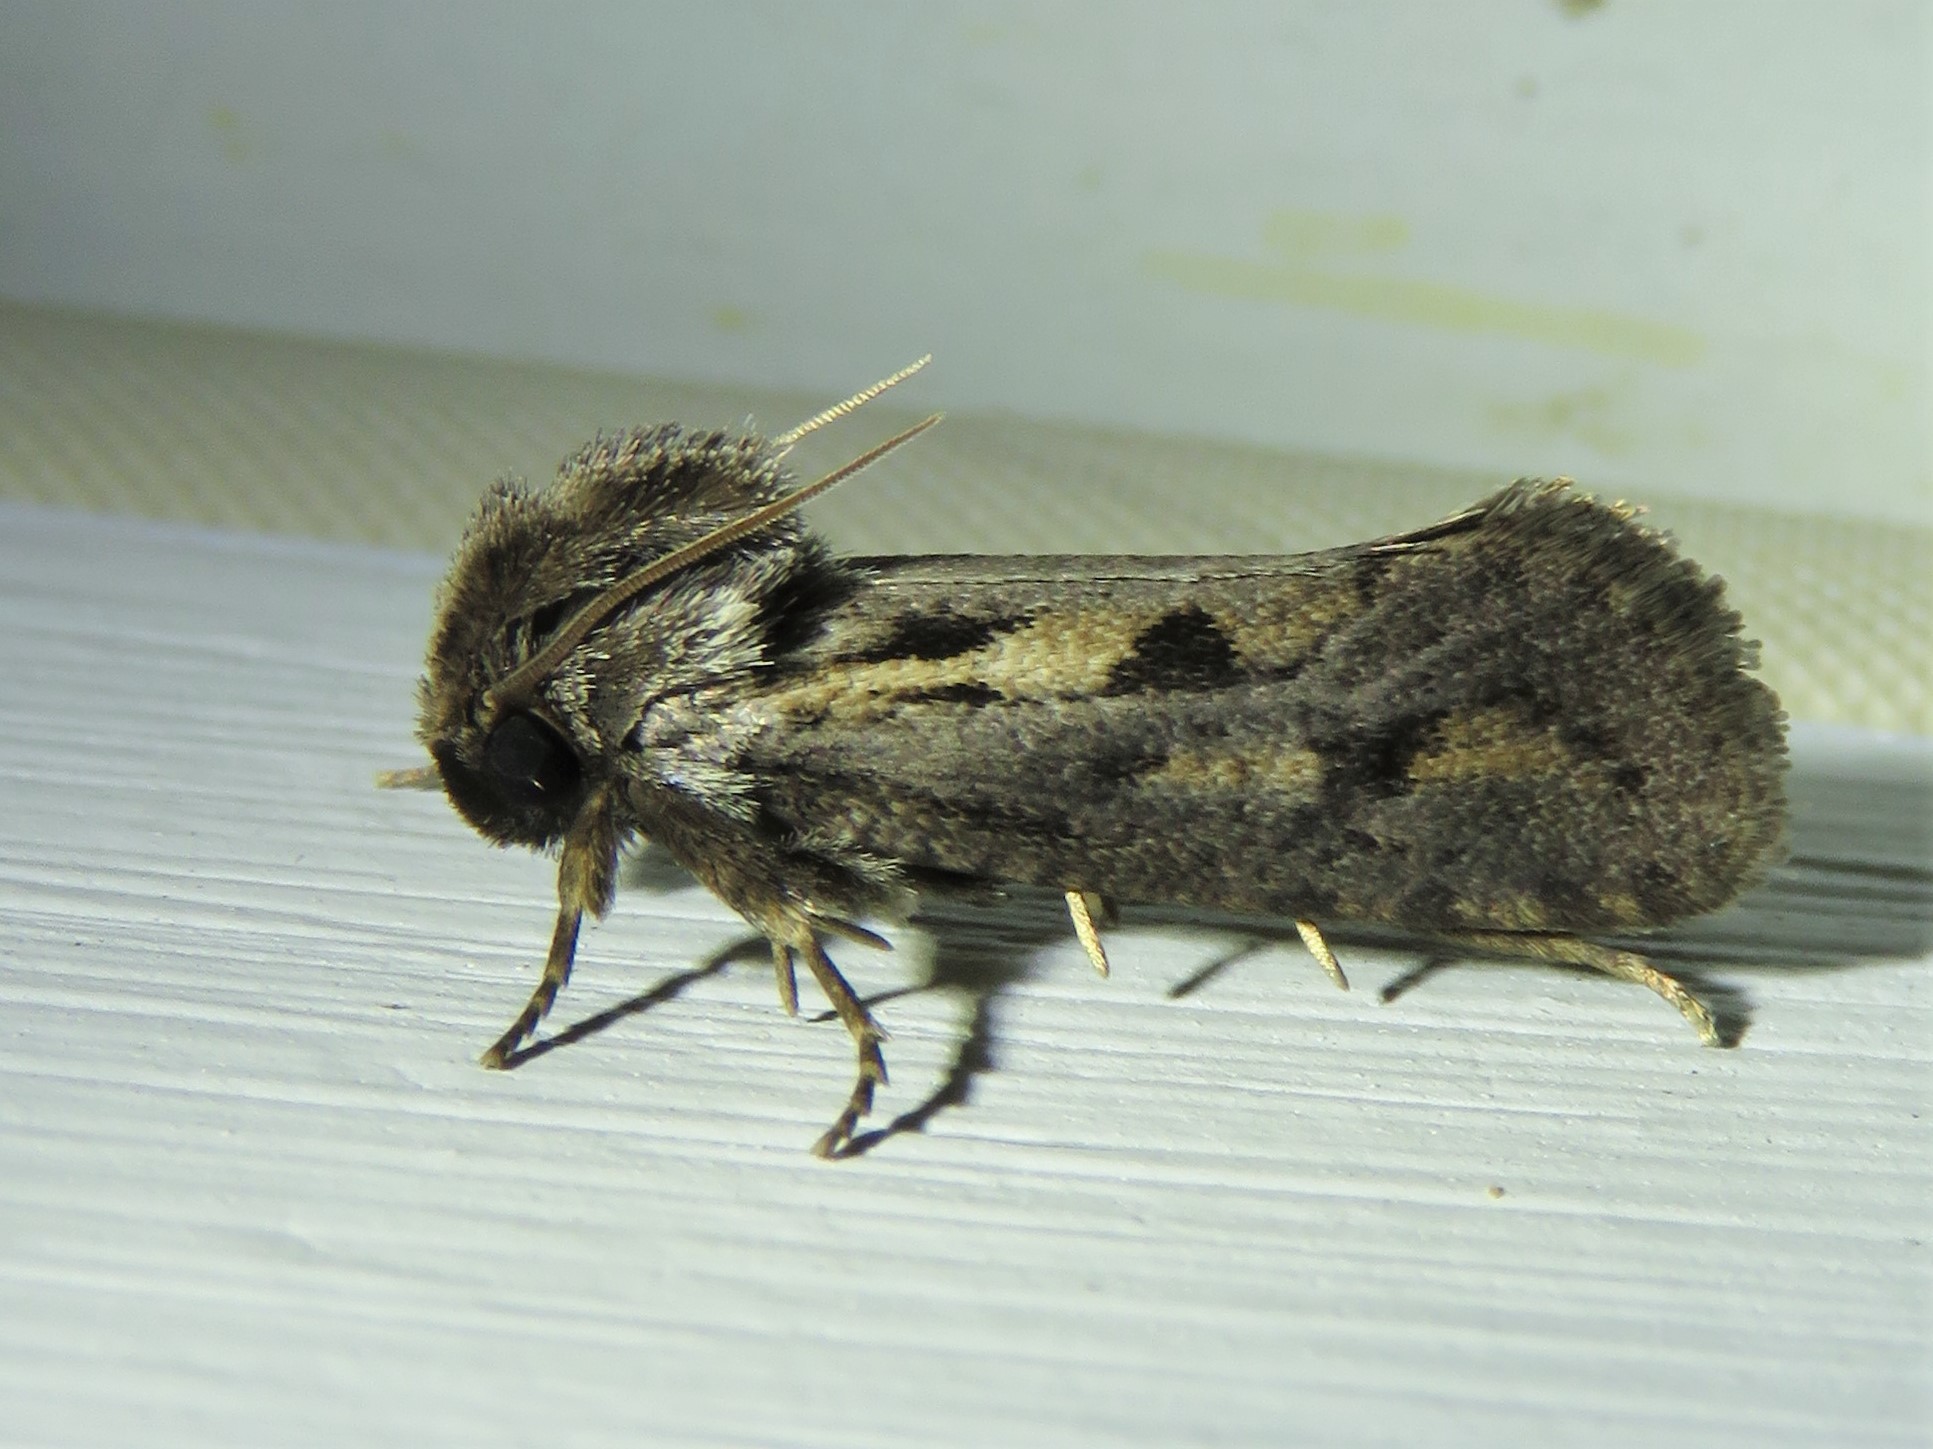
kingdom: Animalia
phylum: Arthropoda
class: Insecta
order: Lepidoptera
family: Tineidae
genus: Acrolophus
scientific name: Acrolophus popeanella
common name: Clemens' grass tubeworm moth
